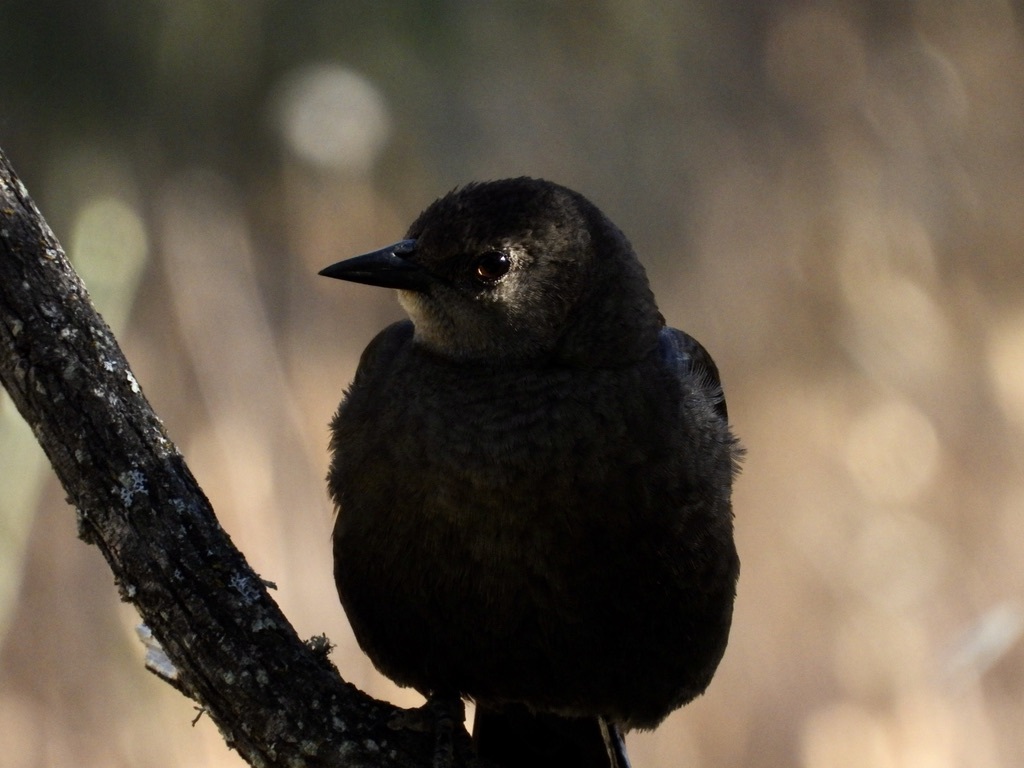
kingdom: Animalia
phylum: Chordata
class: Aves
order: Passeriformes
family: Icteridae
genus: Euphagus
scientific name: Euphagus cyanocephalus
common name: Brewer's blackbird
